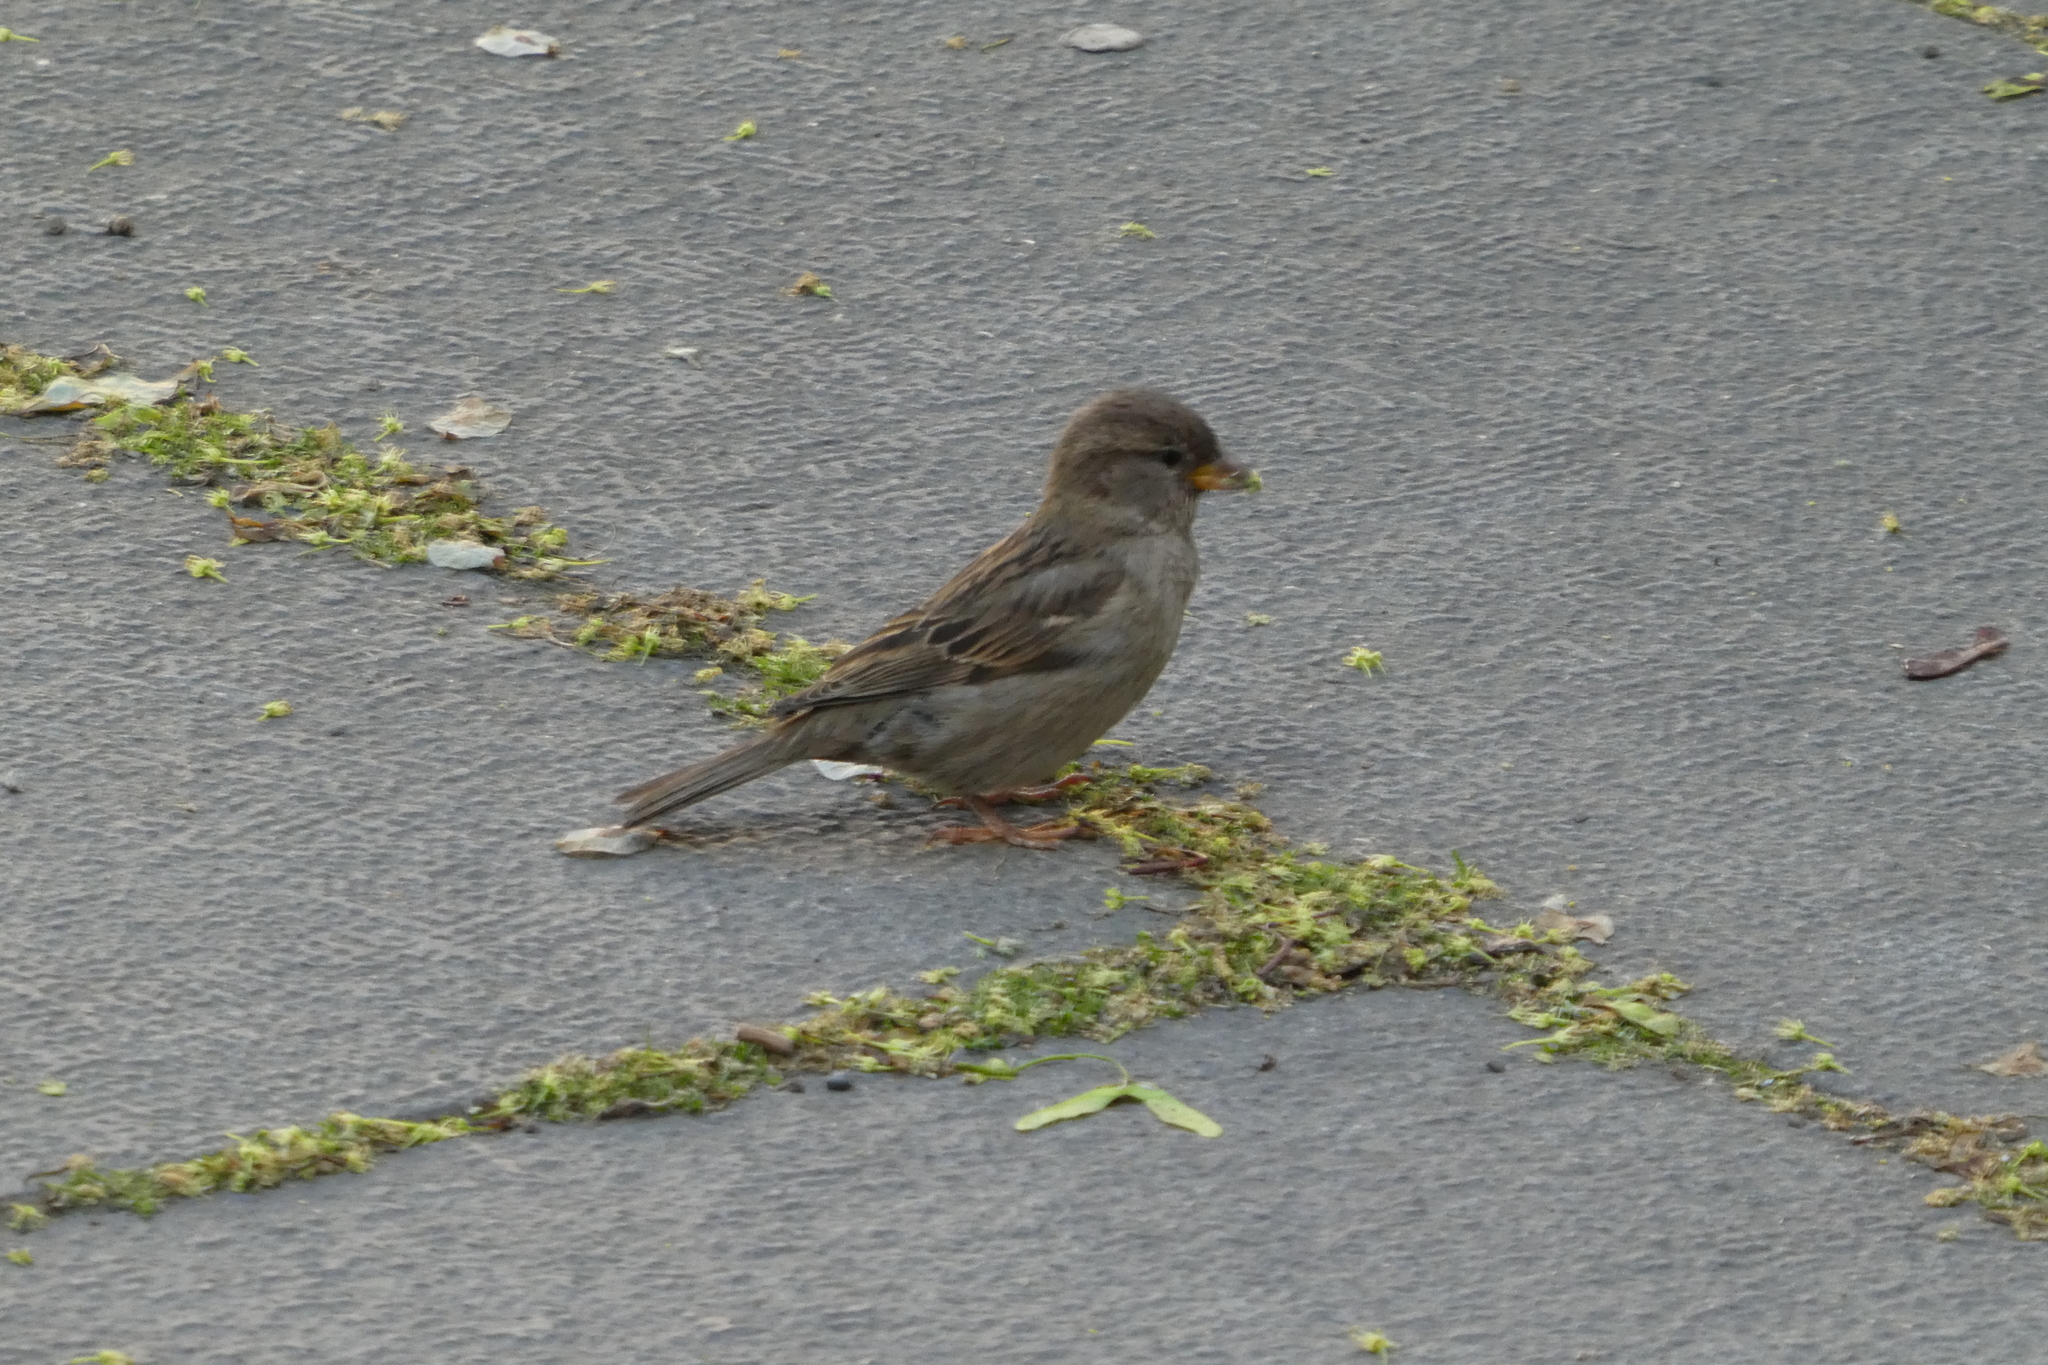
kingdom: Animalia
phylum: Chordata
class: Aves
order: Passeriformes
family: Passeridae
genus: Passer
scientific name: Passer domesticus
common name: House sparrow
